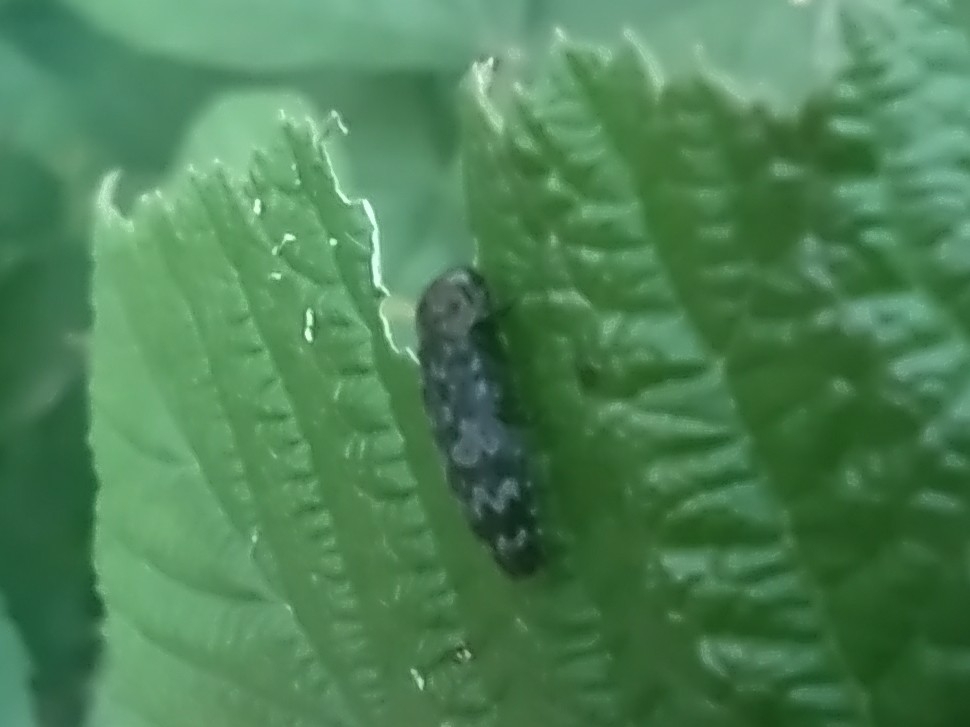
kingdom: Animalia
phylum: Arthropoda
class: Insecta
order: Coleoptera
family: Buprestidae
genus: Coraebus
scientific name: Coraebus rubi
